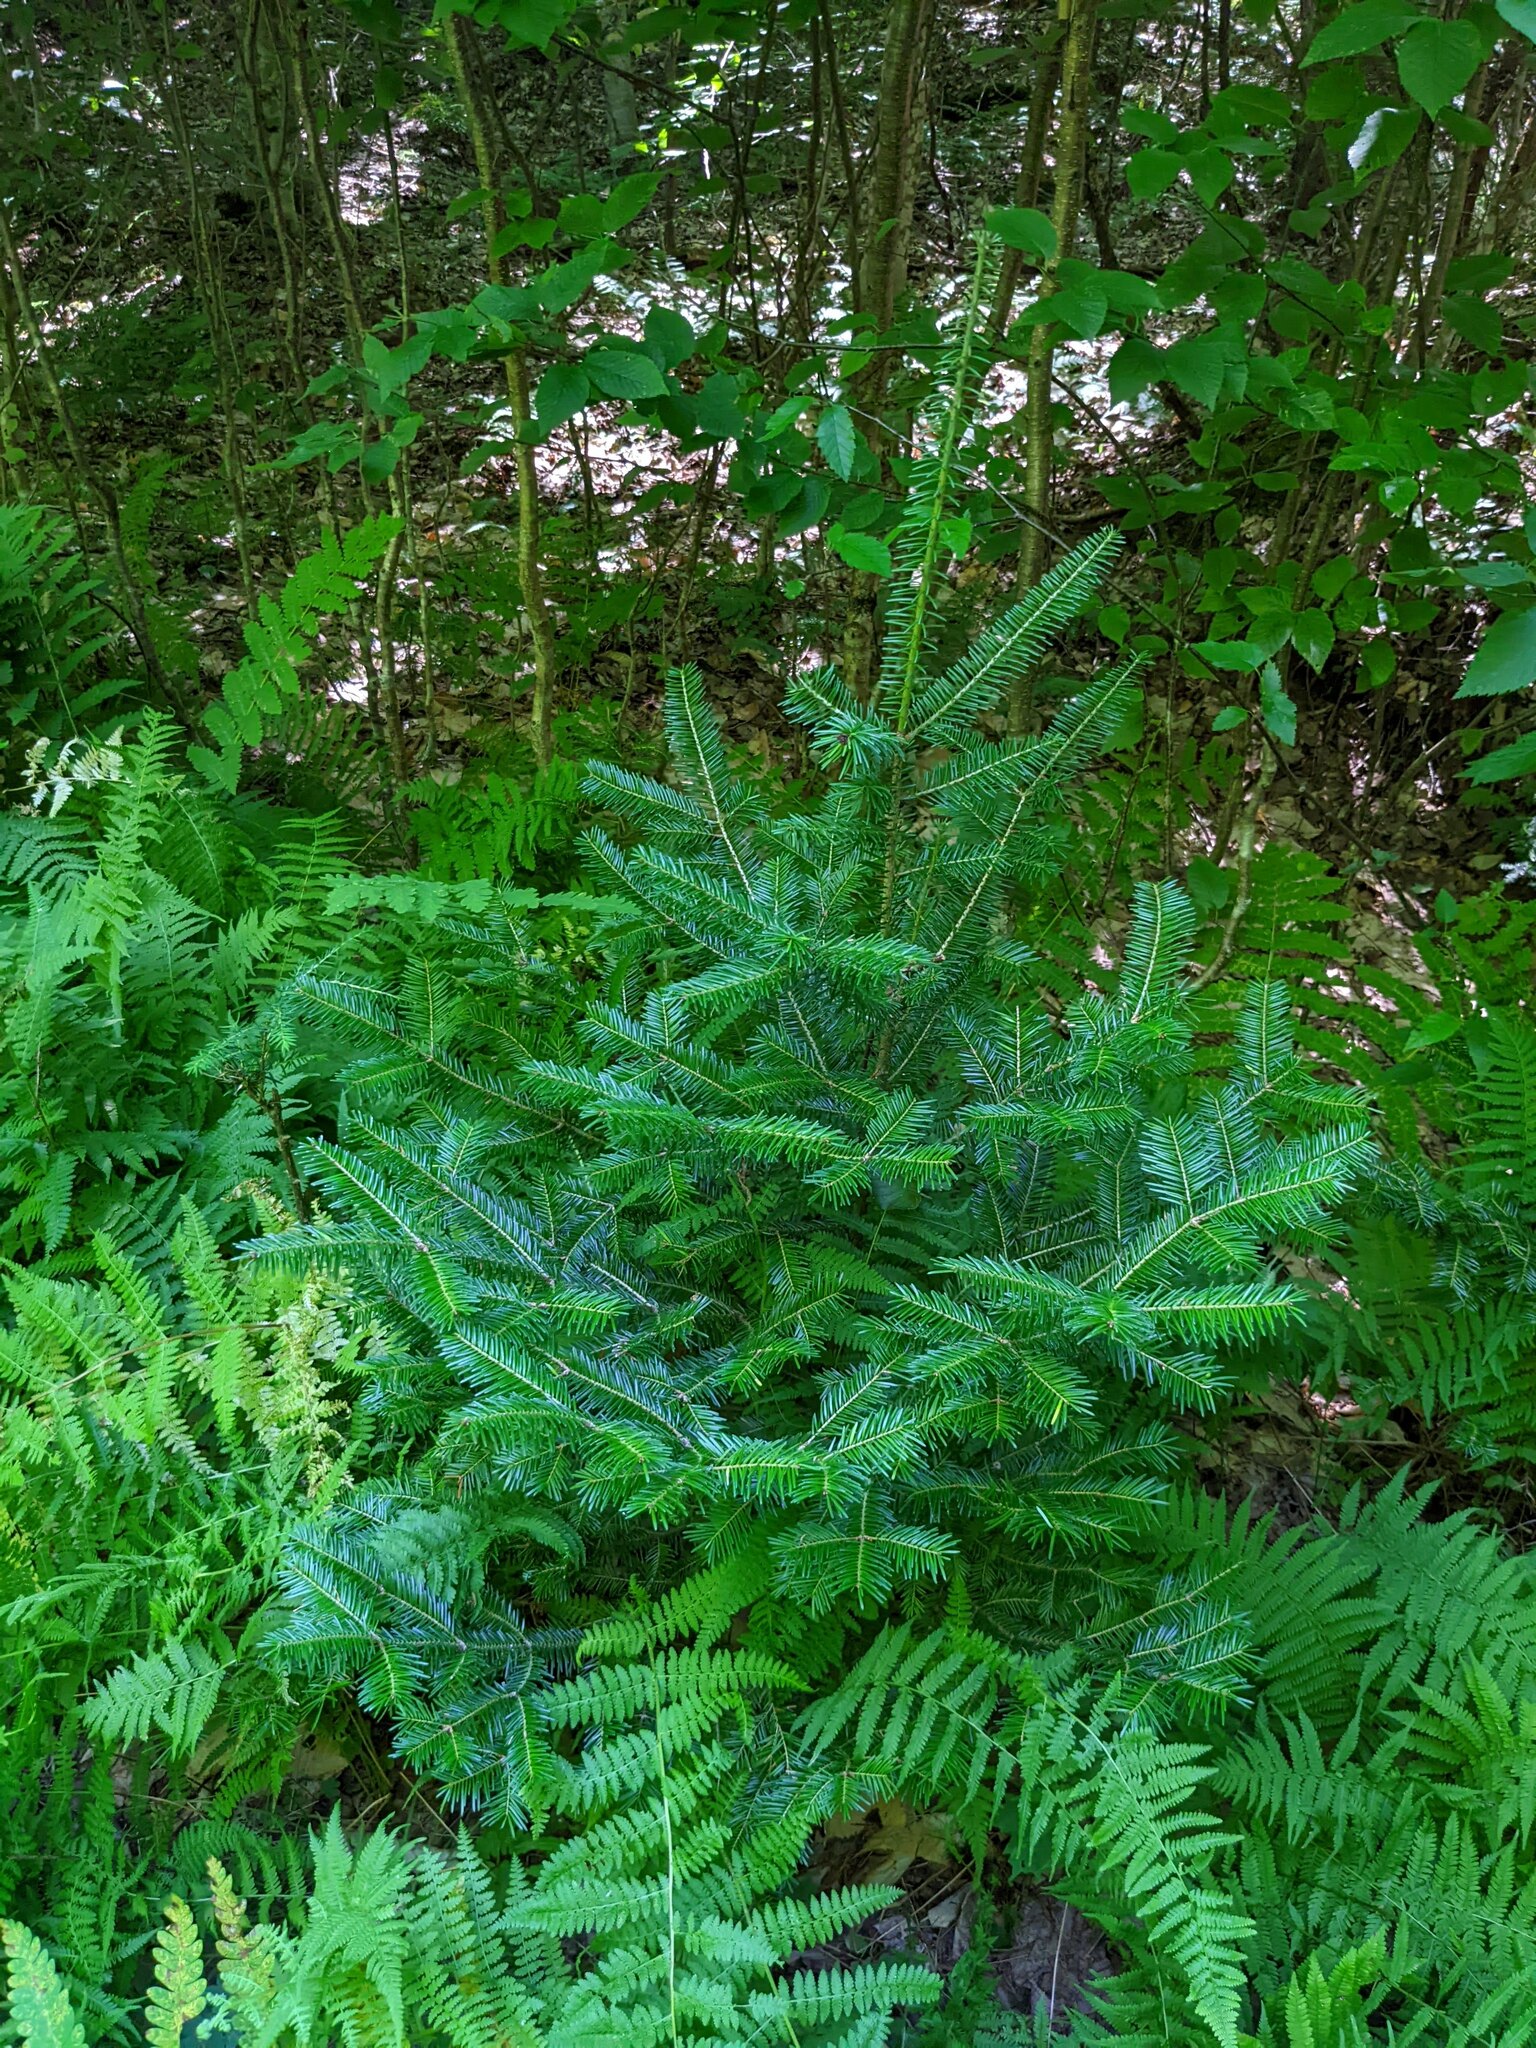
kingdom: Plantae
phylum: Tracheophyta
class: Pinopsida
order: Pinales
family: Pinaceae
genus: Abies
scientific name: Abies balsamea
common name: Balsam fir
